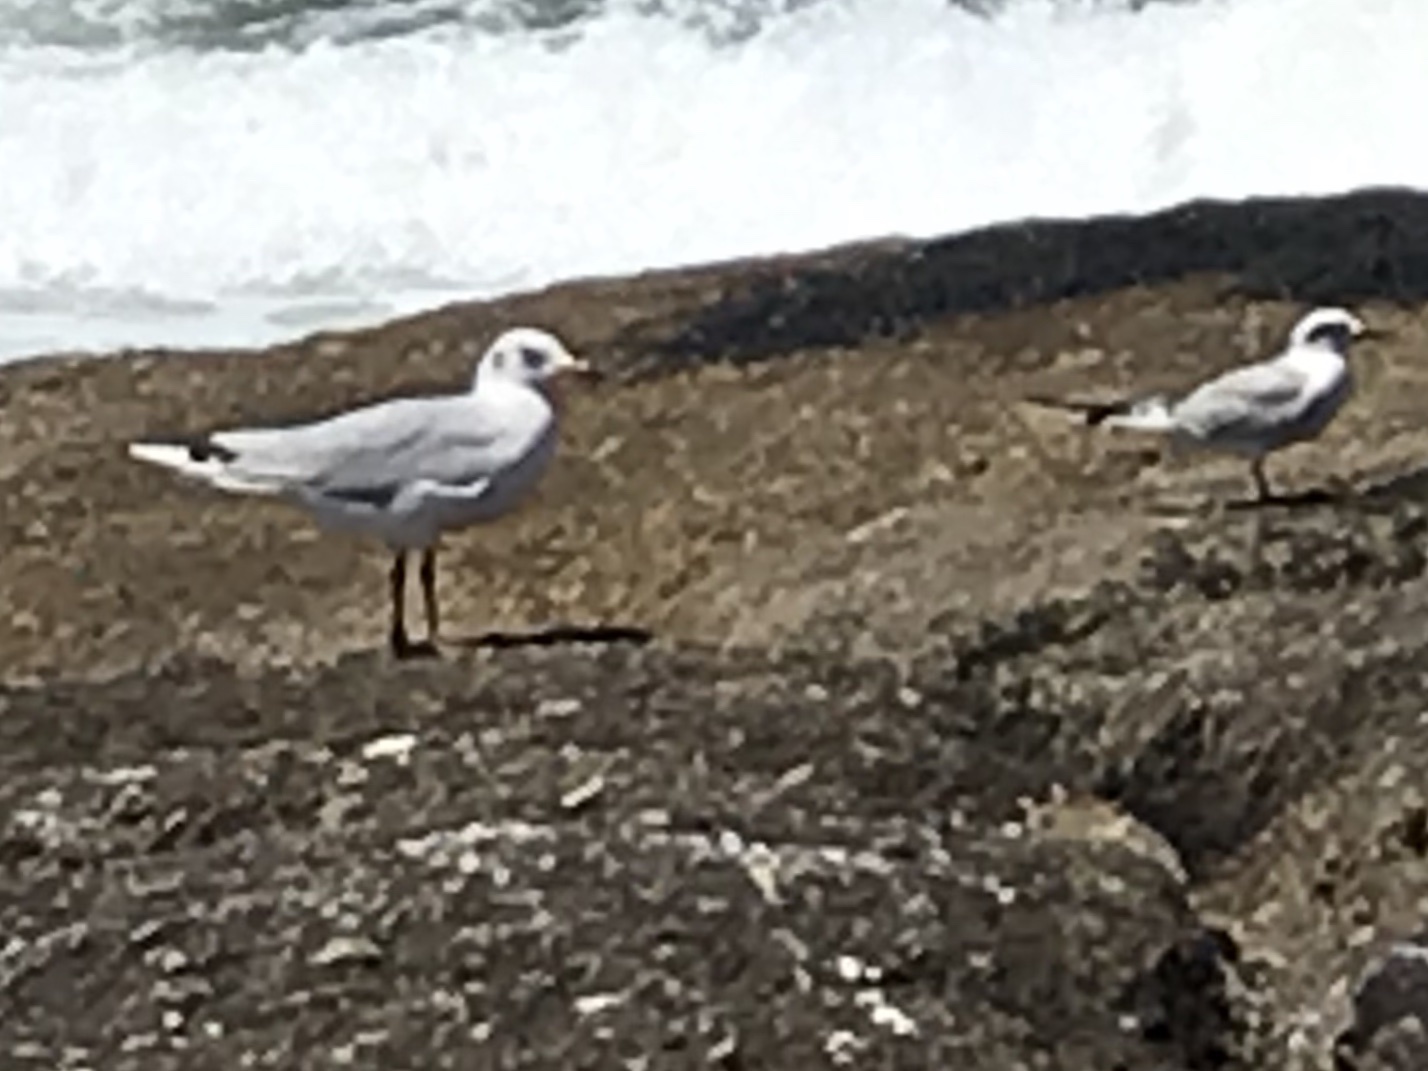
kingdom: Animalia
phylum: Chordata
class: Aves
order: Charadriiformes
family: Laridae
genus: Chroicocephalus
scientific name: Chroicocephalus maculipennis
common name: Brown-hooded gull
